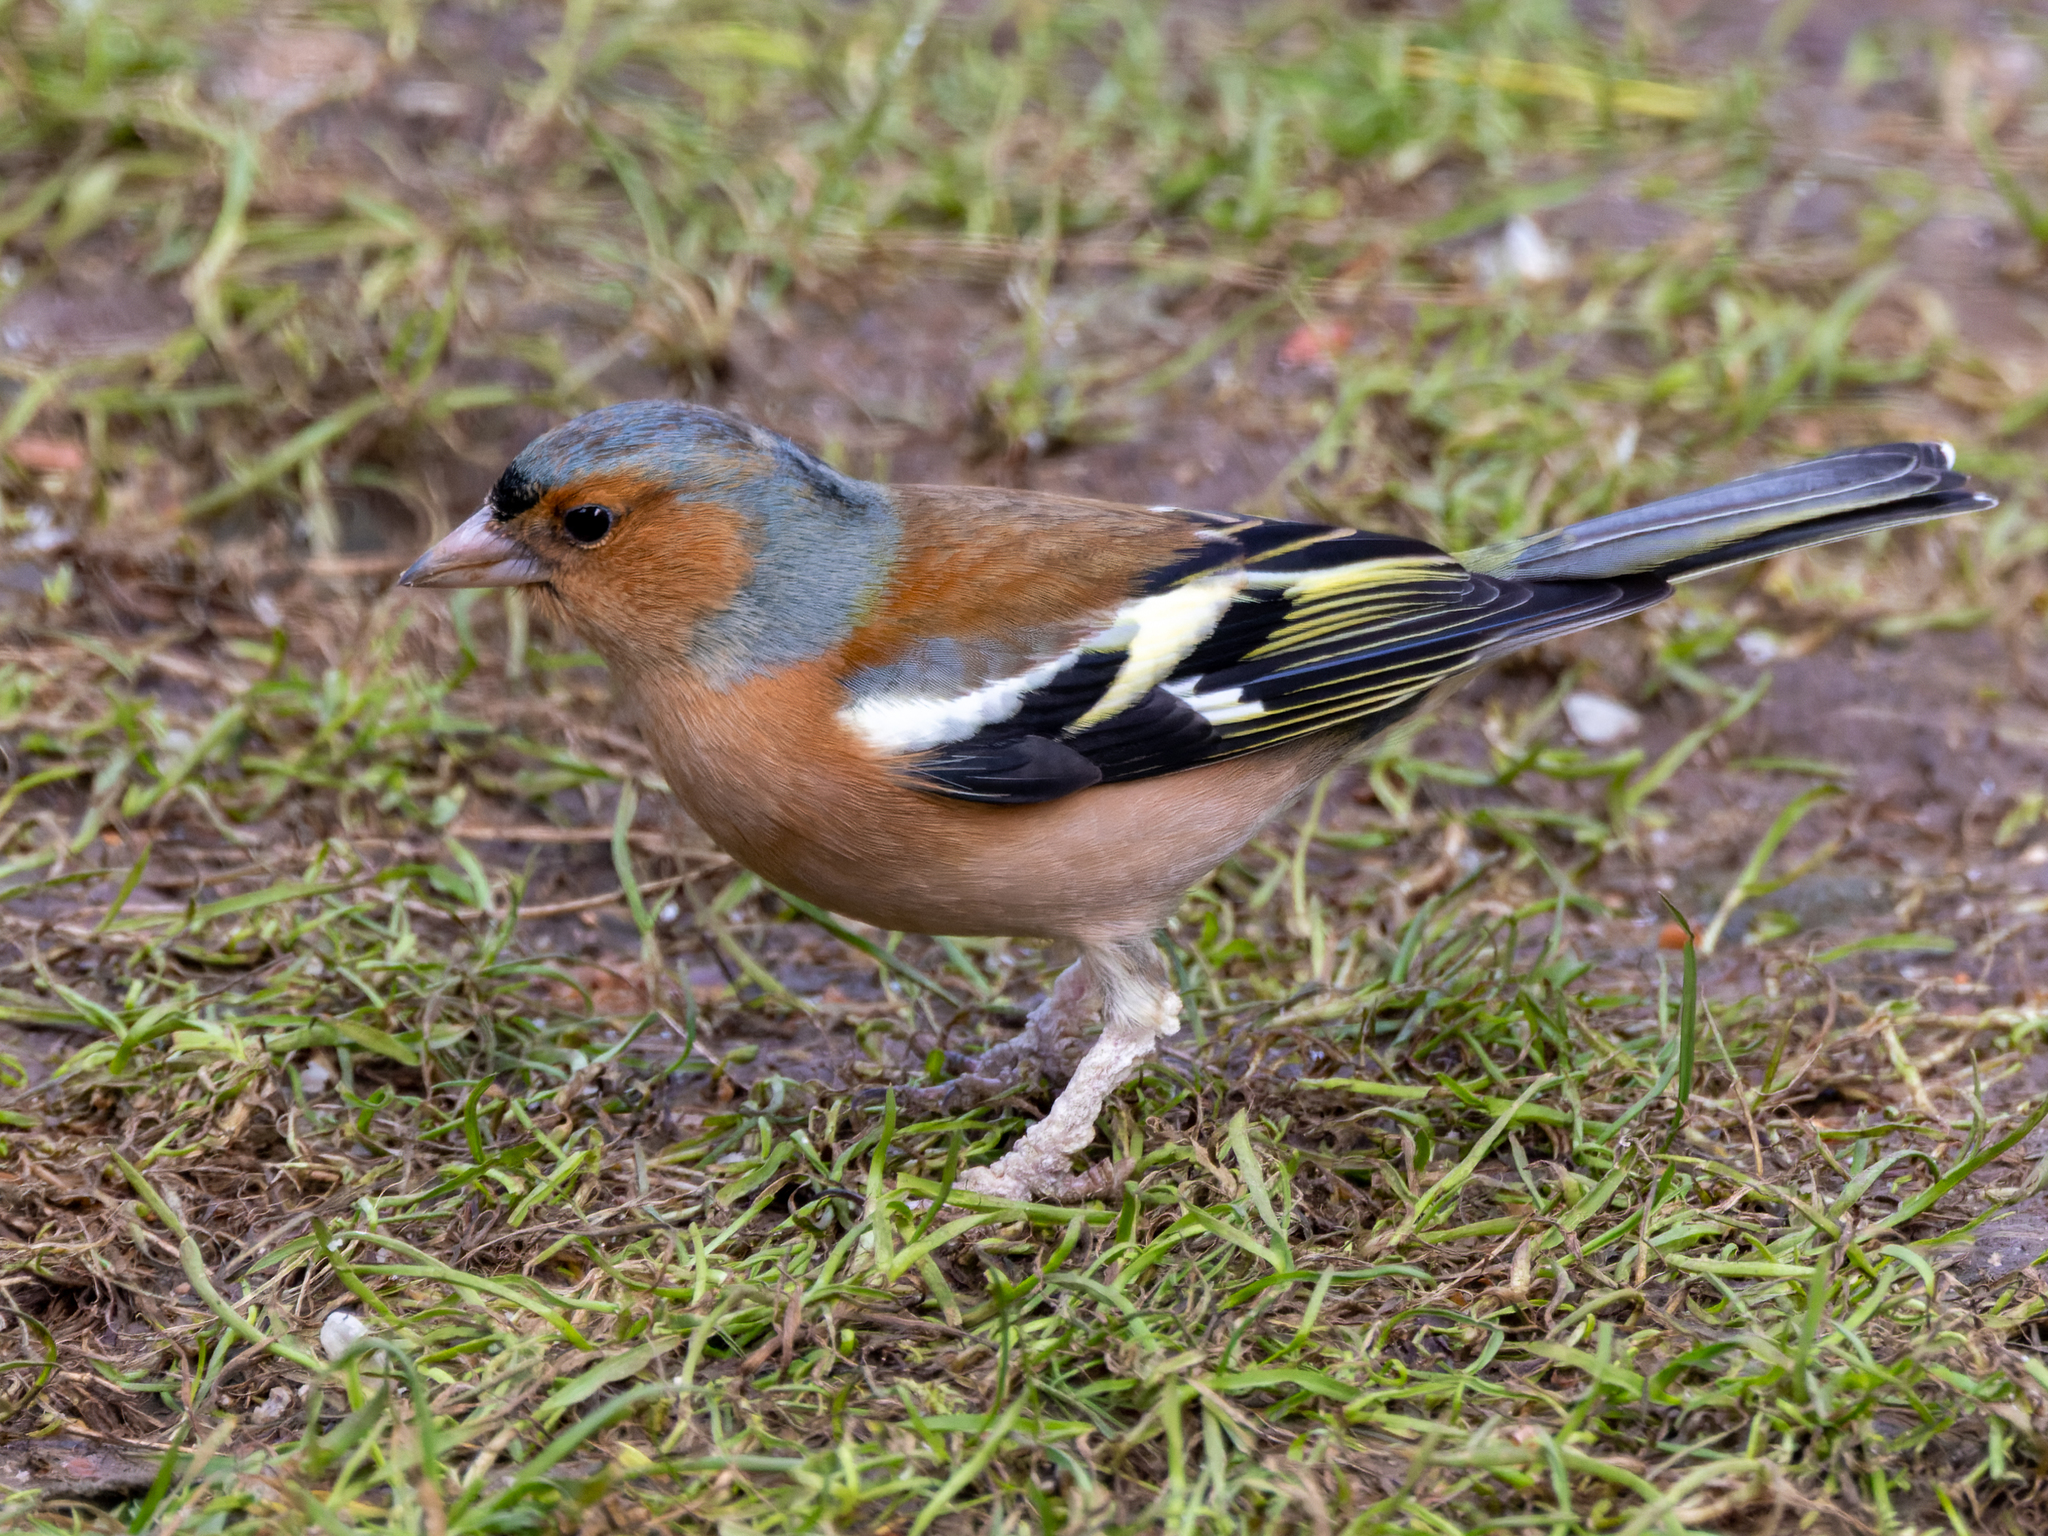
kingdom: Animalia
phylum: Chordata
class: Aves
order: Passeriformes
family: Fringillidae
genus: Fringilla
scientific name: Fringilla coelebs
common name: Common chaffinch
